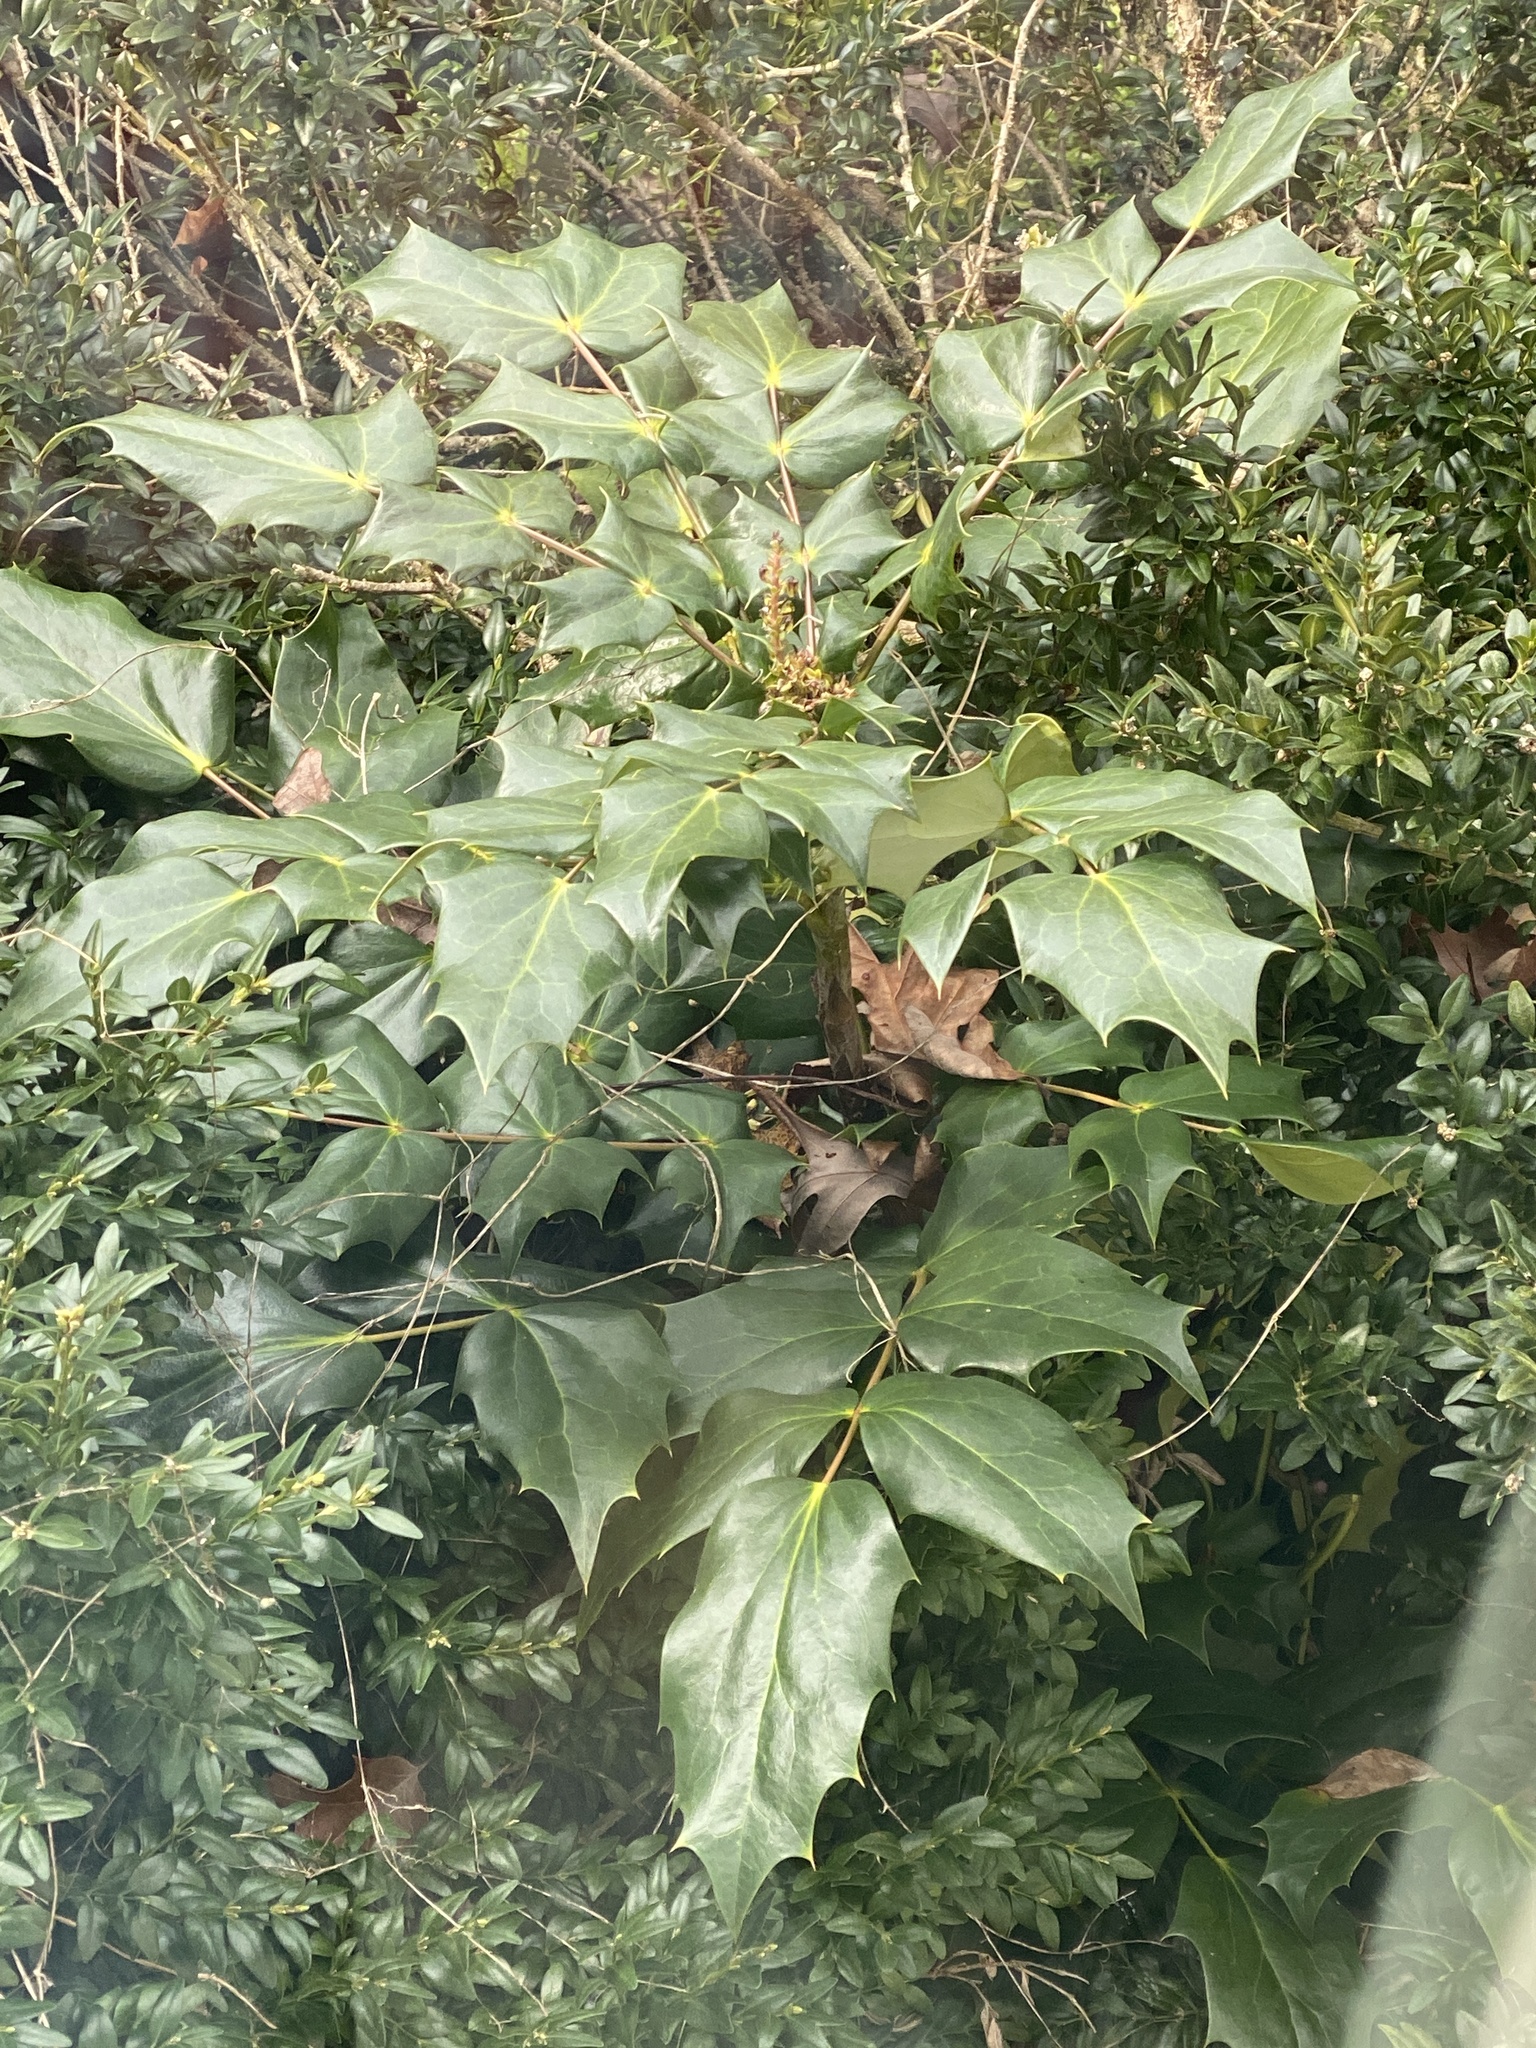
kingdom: Plantae
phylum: Tracheophyta
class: Magnoliopsida
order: Ranunculales
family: Berberidaceae
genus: Mahonia
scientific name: Mahonia bealei
